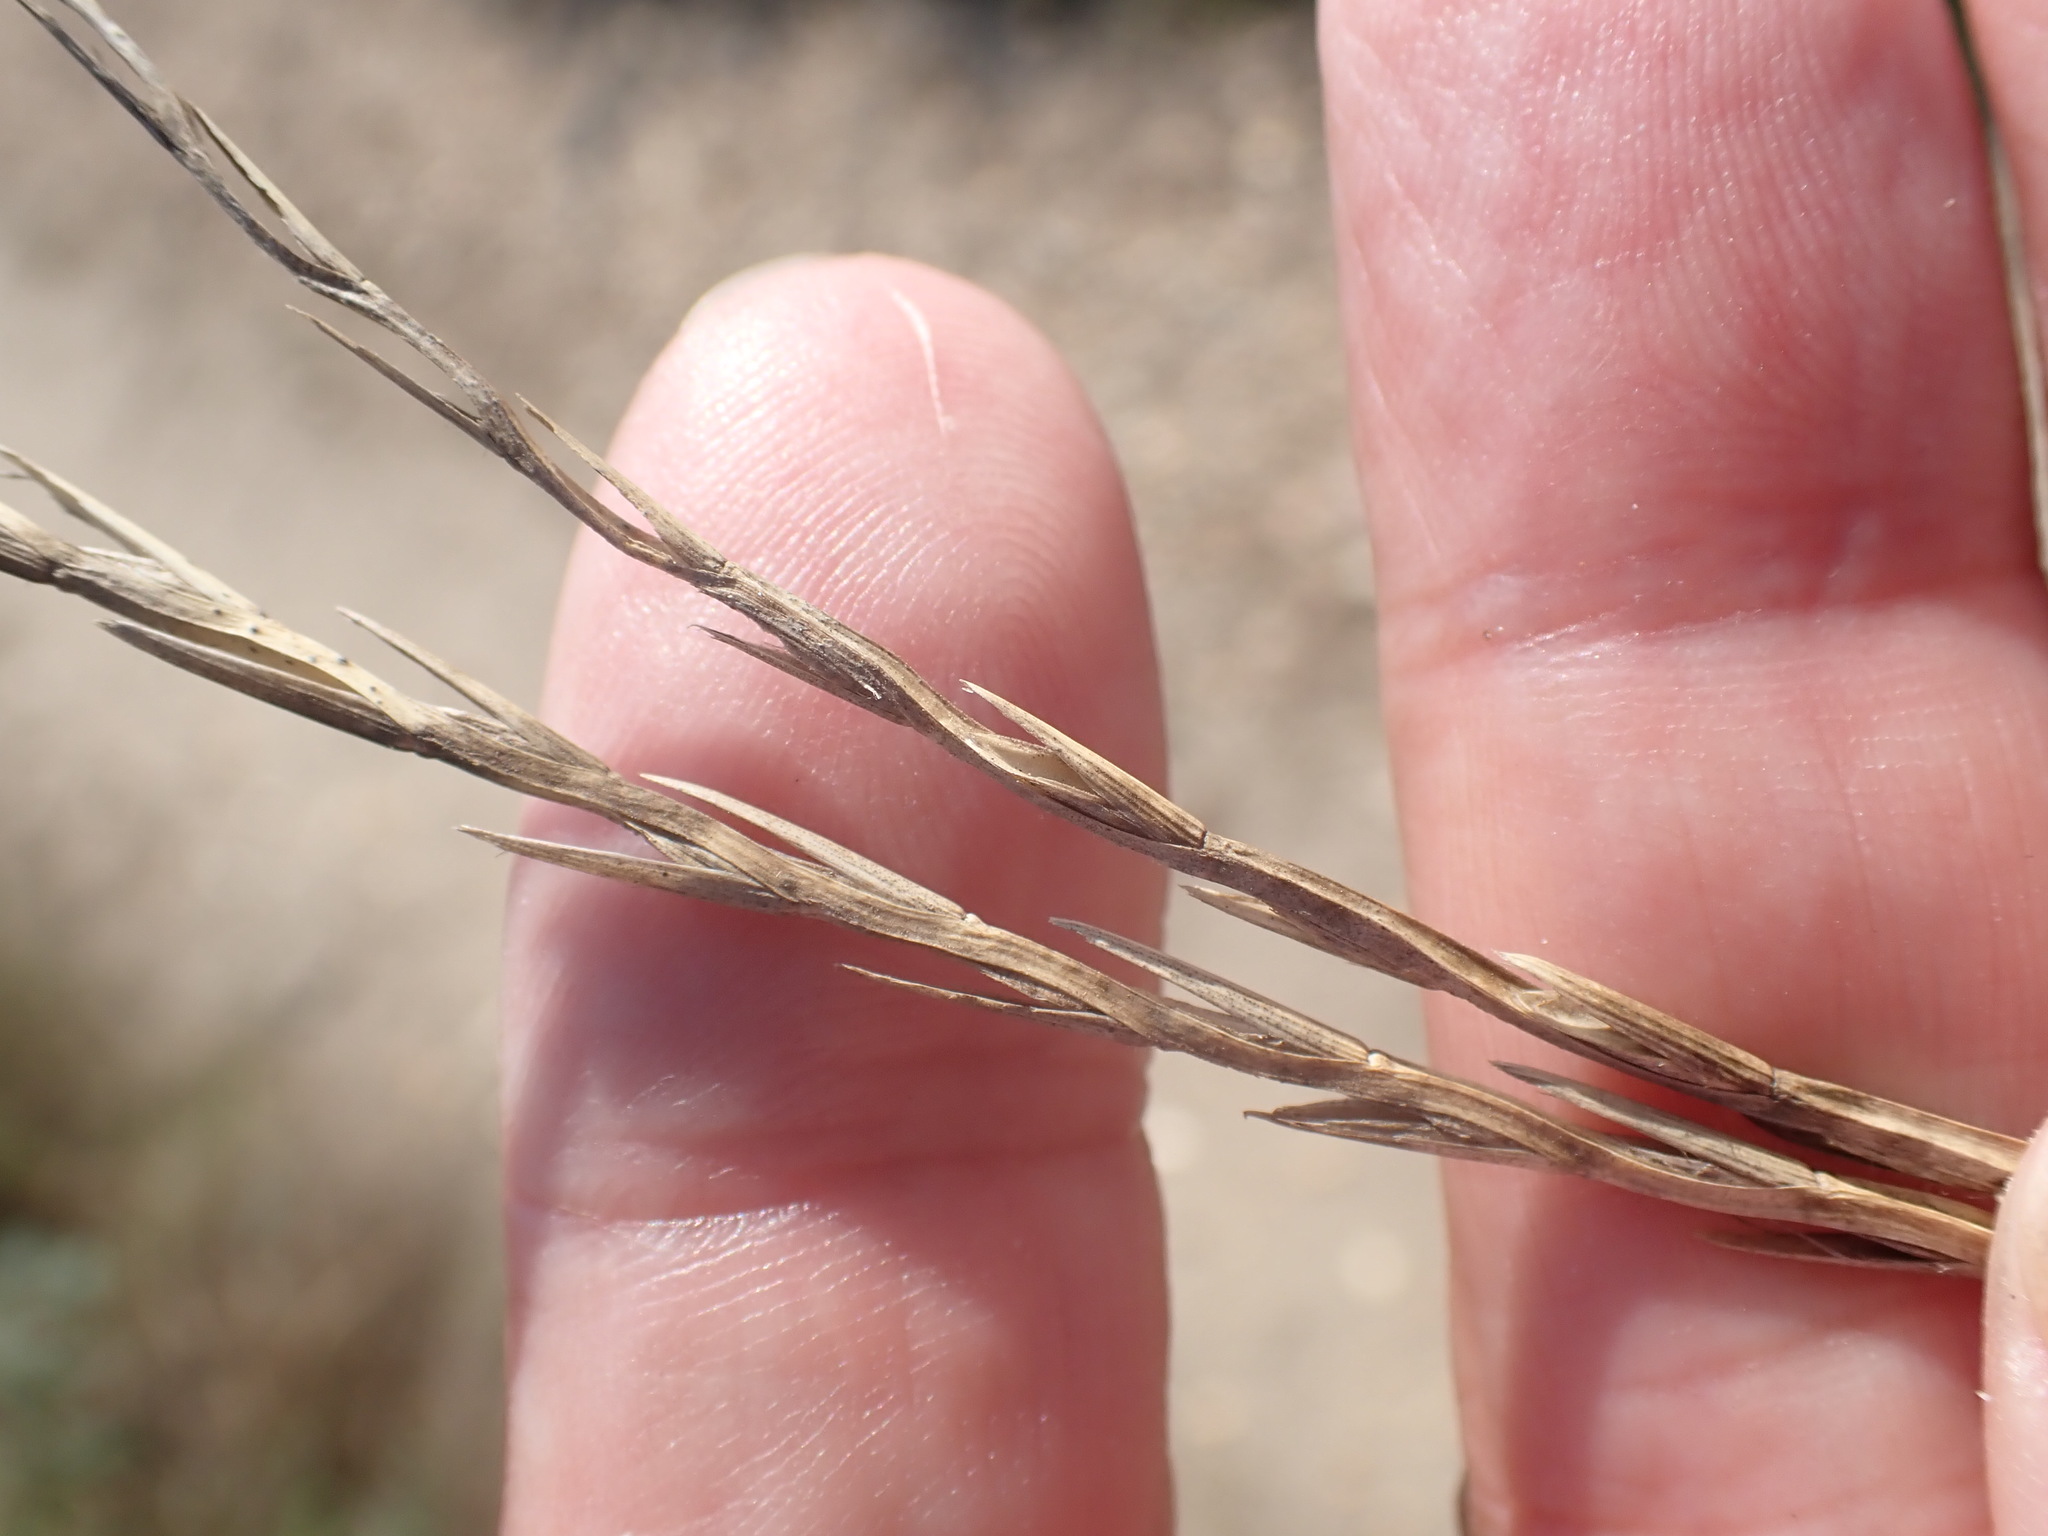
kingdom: Plantae
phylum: Tracheophyta
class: Liliopsida
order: Poales
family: Poaceae
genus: Lolium
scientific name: Lolium perenne
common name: Perennial ryegrass
